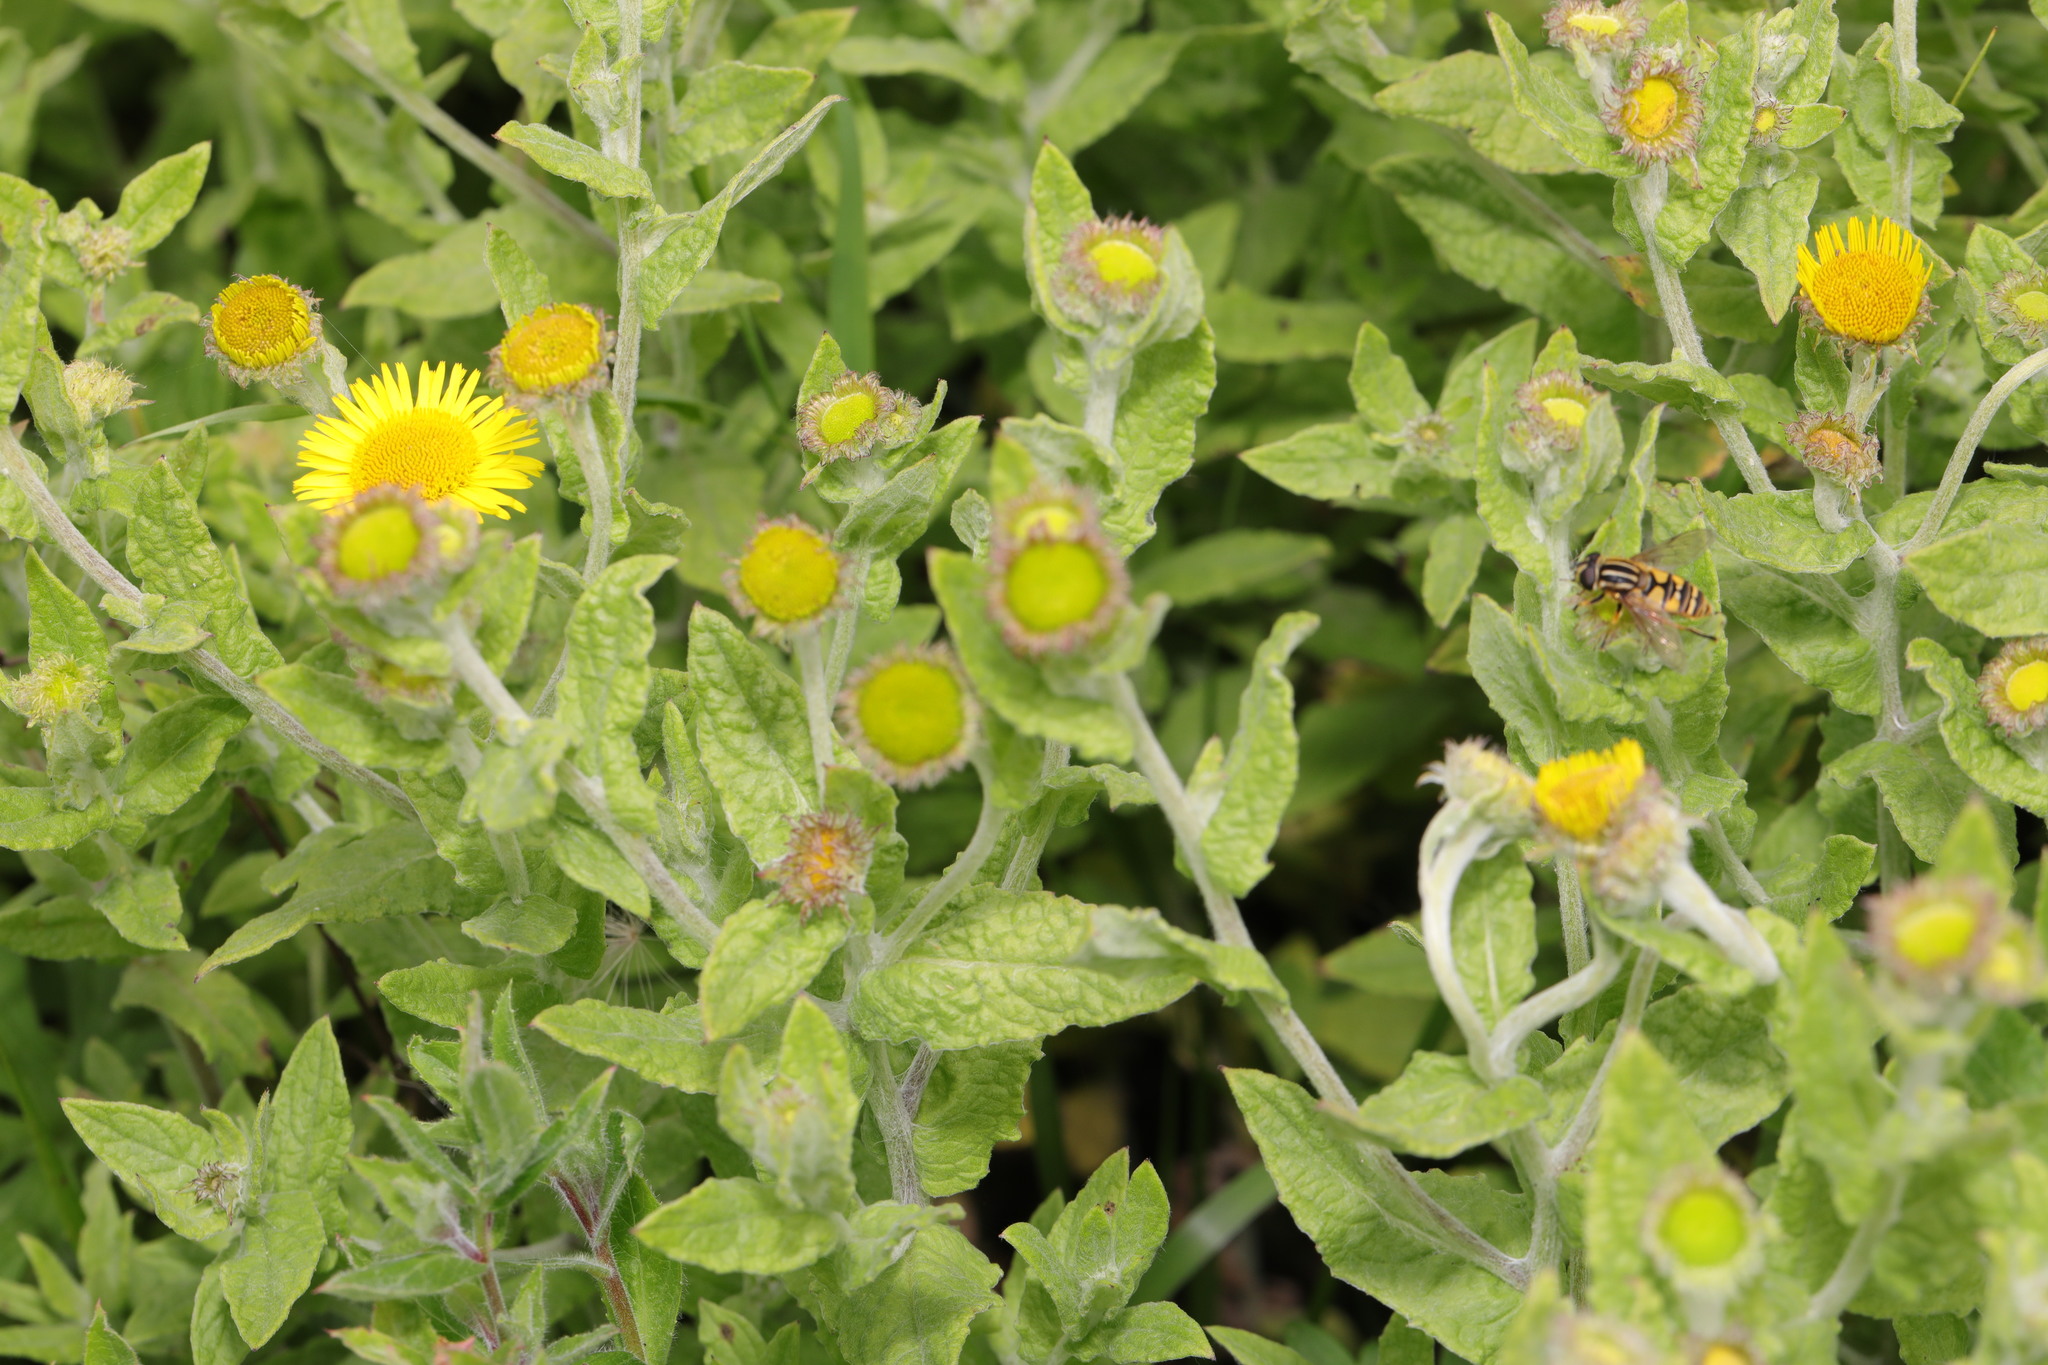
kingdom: Plantae
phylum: Tracheophyta
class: Magnoliopsida
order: Asterales
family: Asteraceae
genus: Pulicaria
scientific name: Pulicaria dysenterica
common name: Common fleabane
